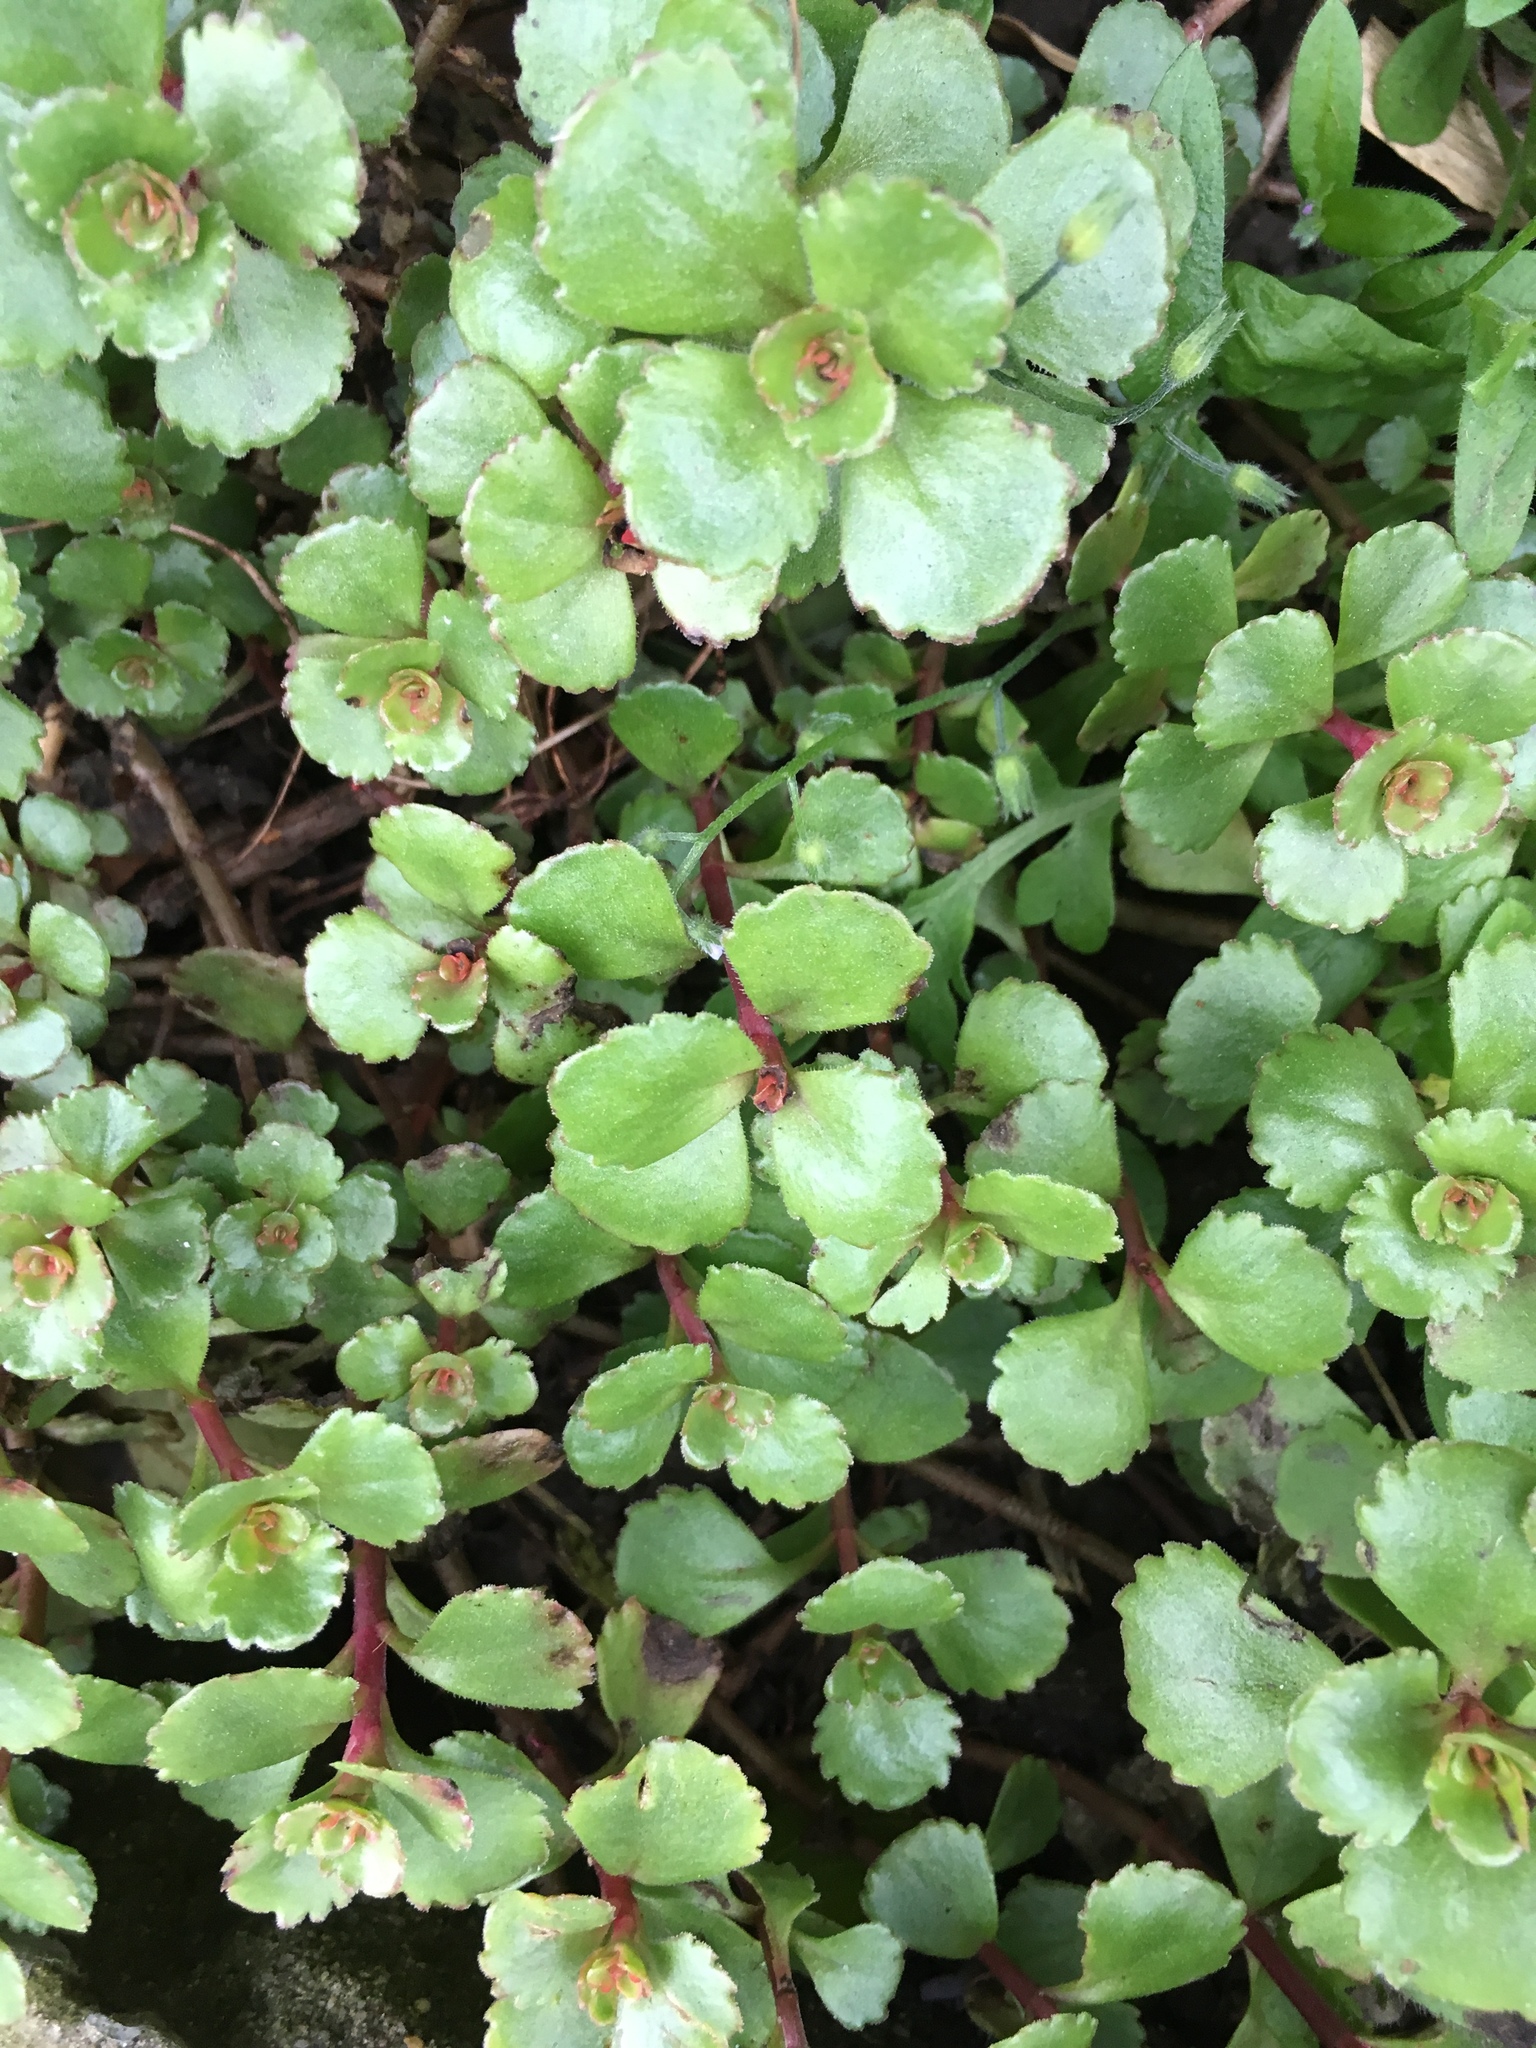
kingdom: Plantae
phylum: Tracheophyta
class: Magnoliopsida
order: Saxifragales
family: Crassulaceae
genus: Phedimus
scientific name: Phedimus spurius
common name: Caucasian stonecrop
